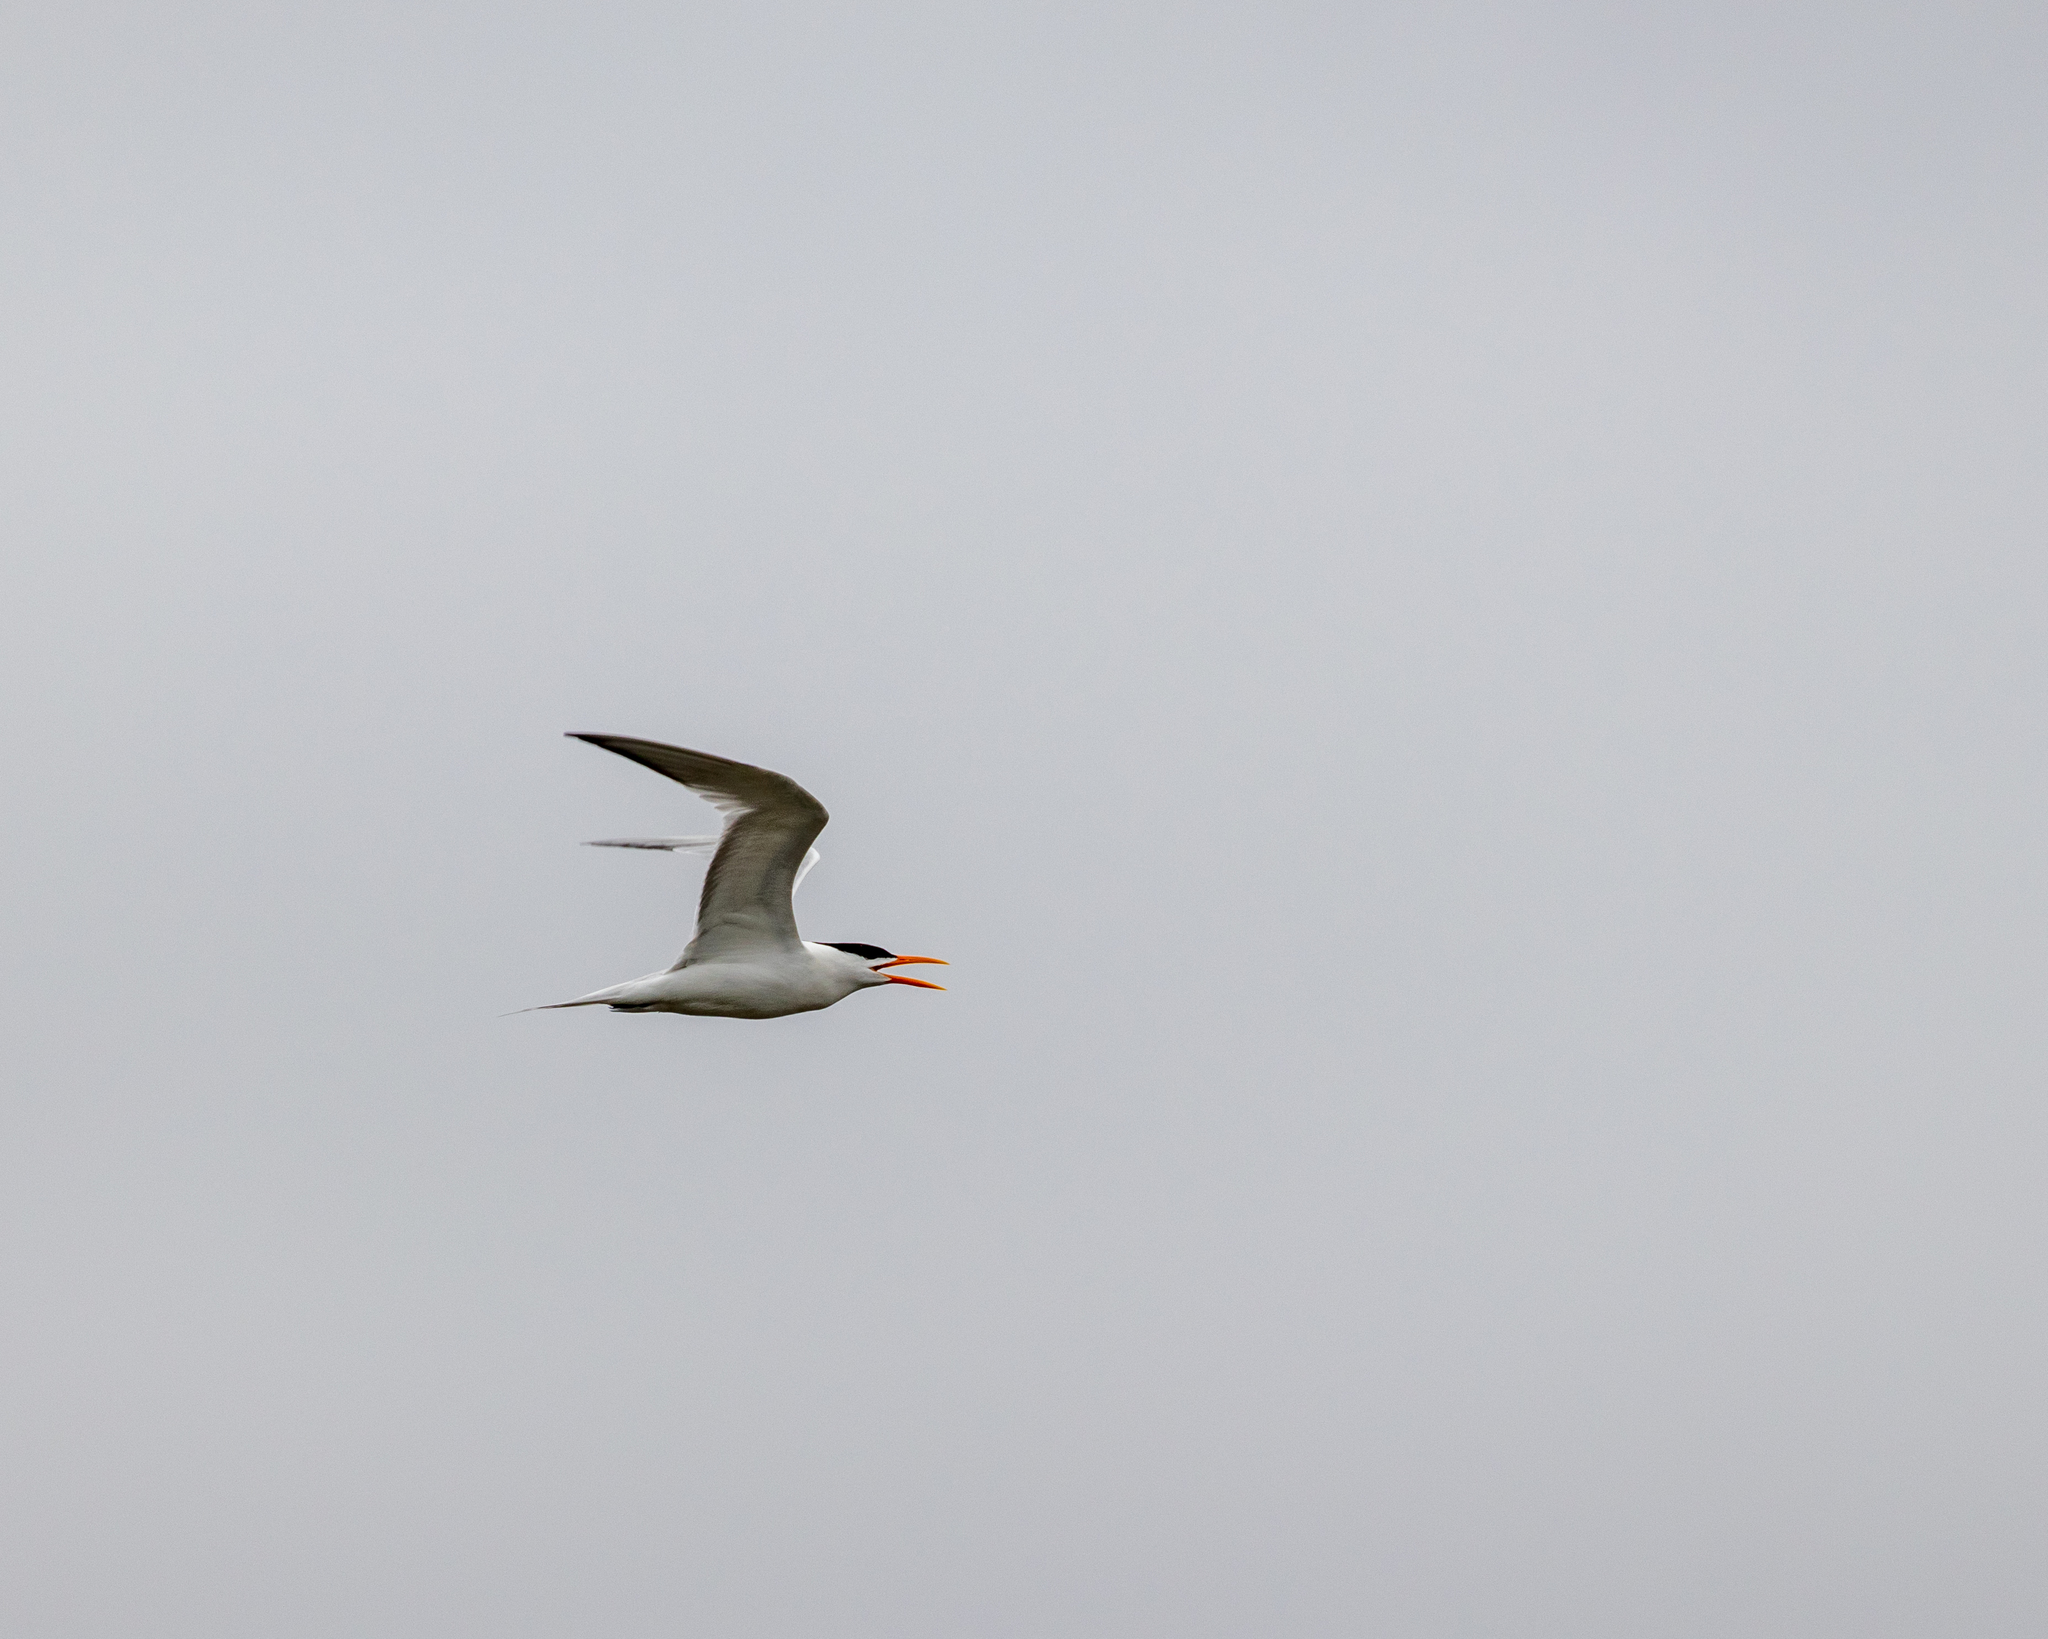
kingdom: Animalia
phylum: Chordata
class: Aves
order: Charadriiformes
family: Laridae
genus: Thalasseus
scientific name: Thalasseus maximus
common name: Royal tern
